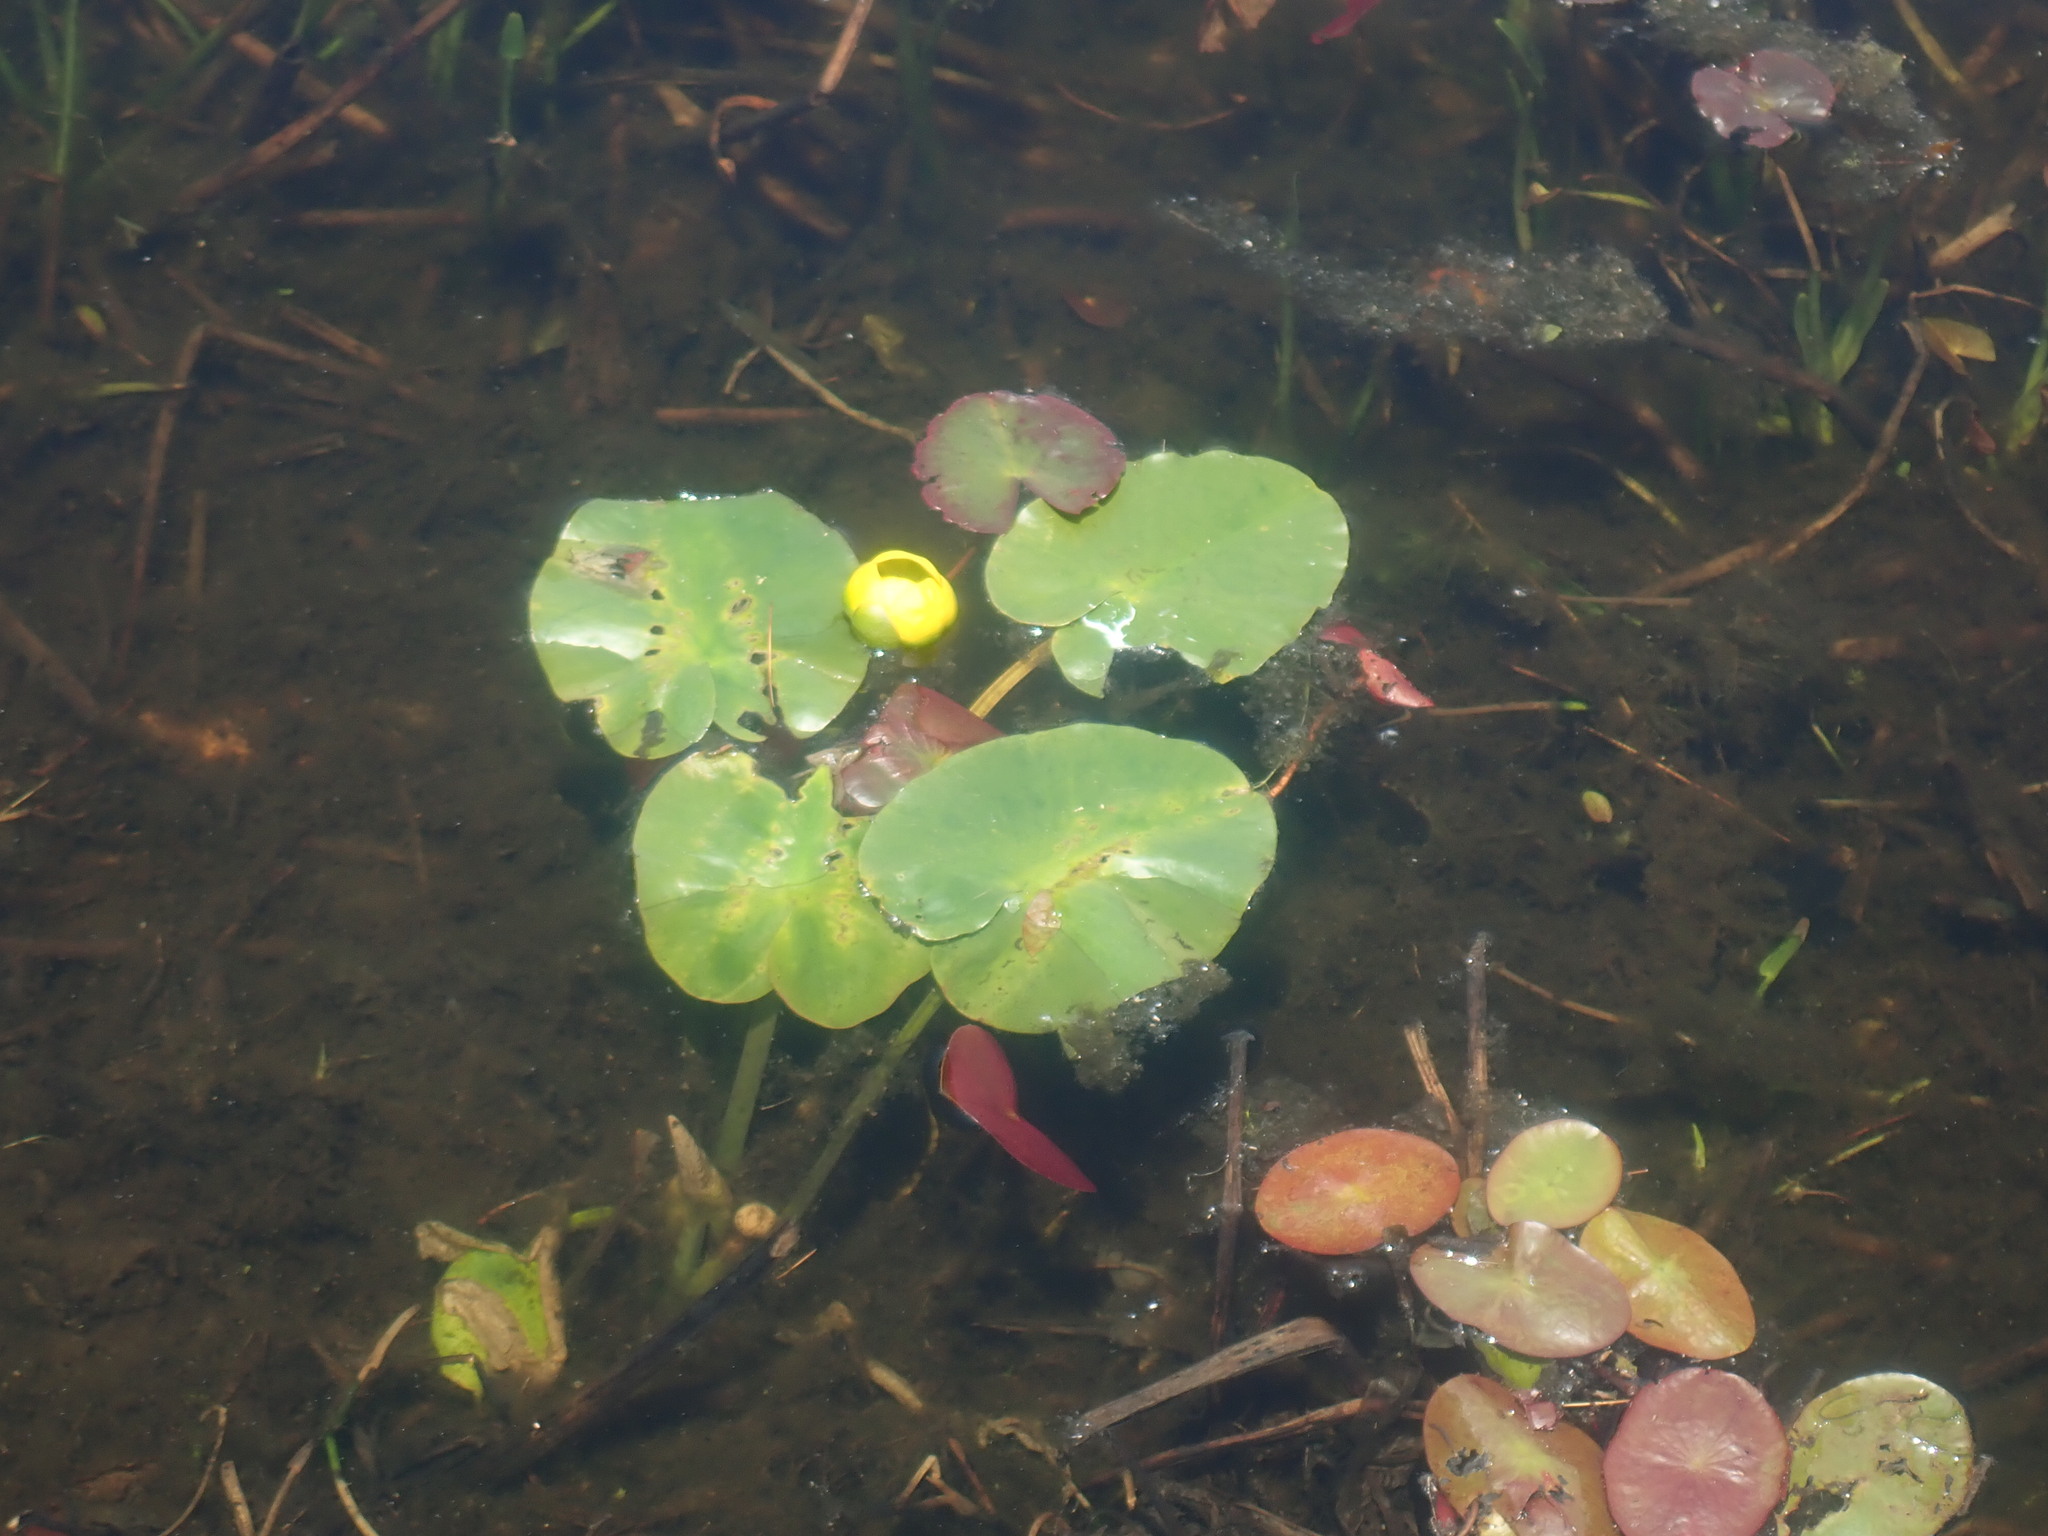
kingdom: Plantae
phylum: Tracheophyta
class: Magnoliopsida
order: Nymphaeales
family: Nymphaeaceae
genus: Nuphar
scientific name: Nuphar variegata
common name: Beaver-root
